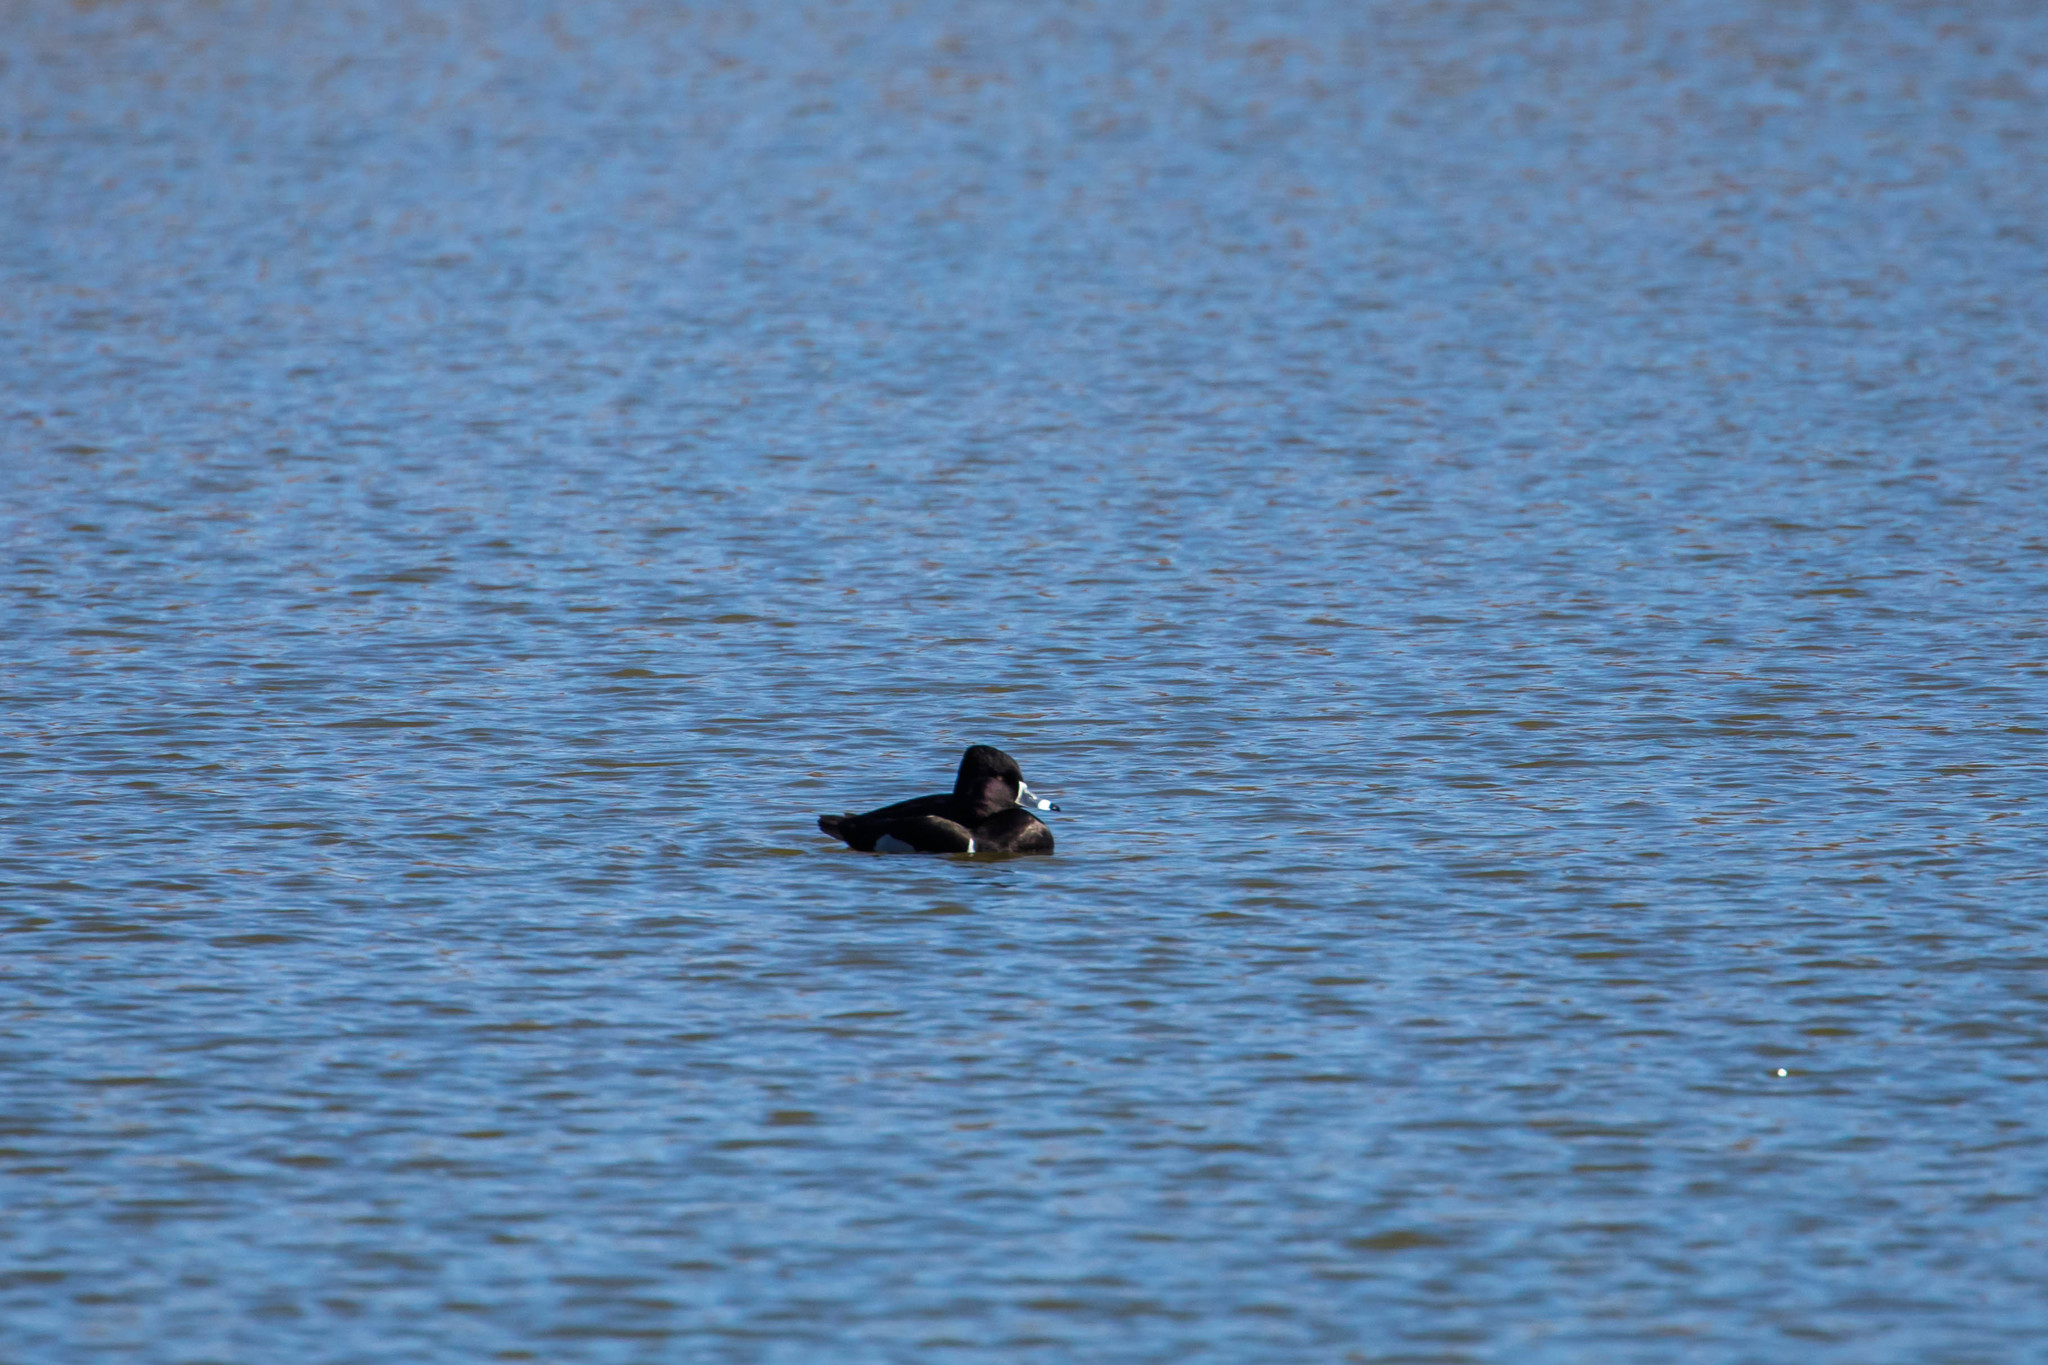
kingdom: Animalia
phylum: Chordata
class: Aves
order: Anseriformes
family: Anatidae
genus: Aythya
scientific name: Aythya collaris
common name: Ring-necked duck
